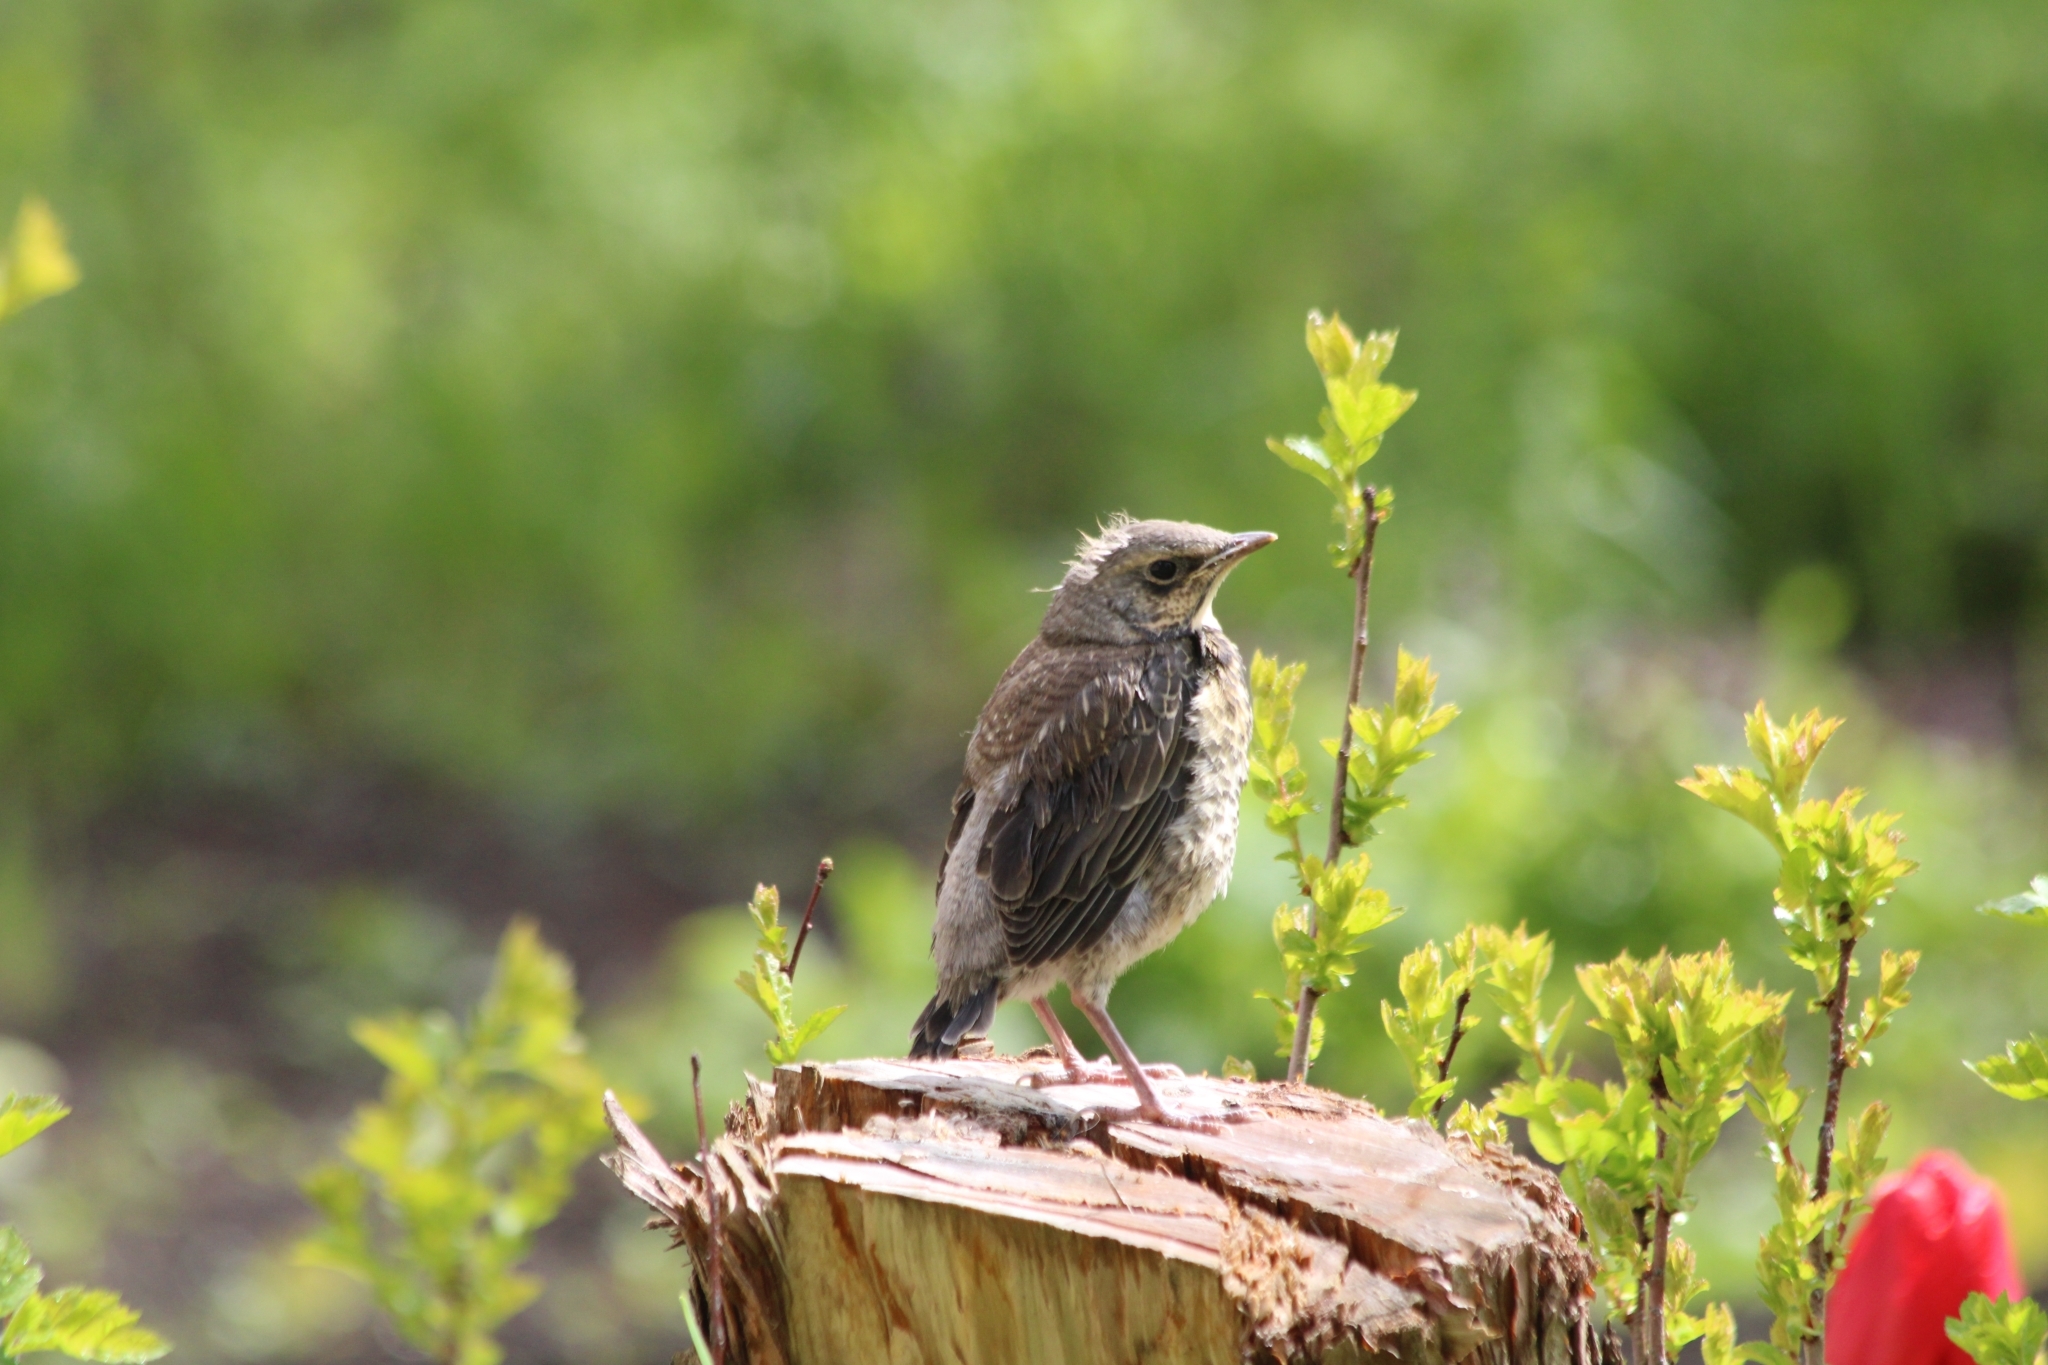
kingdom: Animalia
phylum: Chordata
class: Aves
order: Passeriformes
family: Turdidae
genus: Turdus
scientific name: Turdus pilaris
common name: Fieldfare
